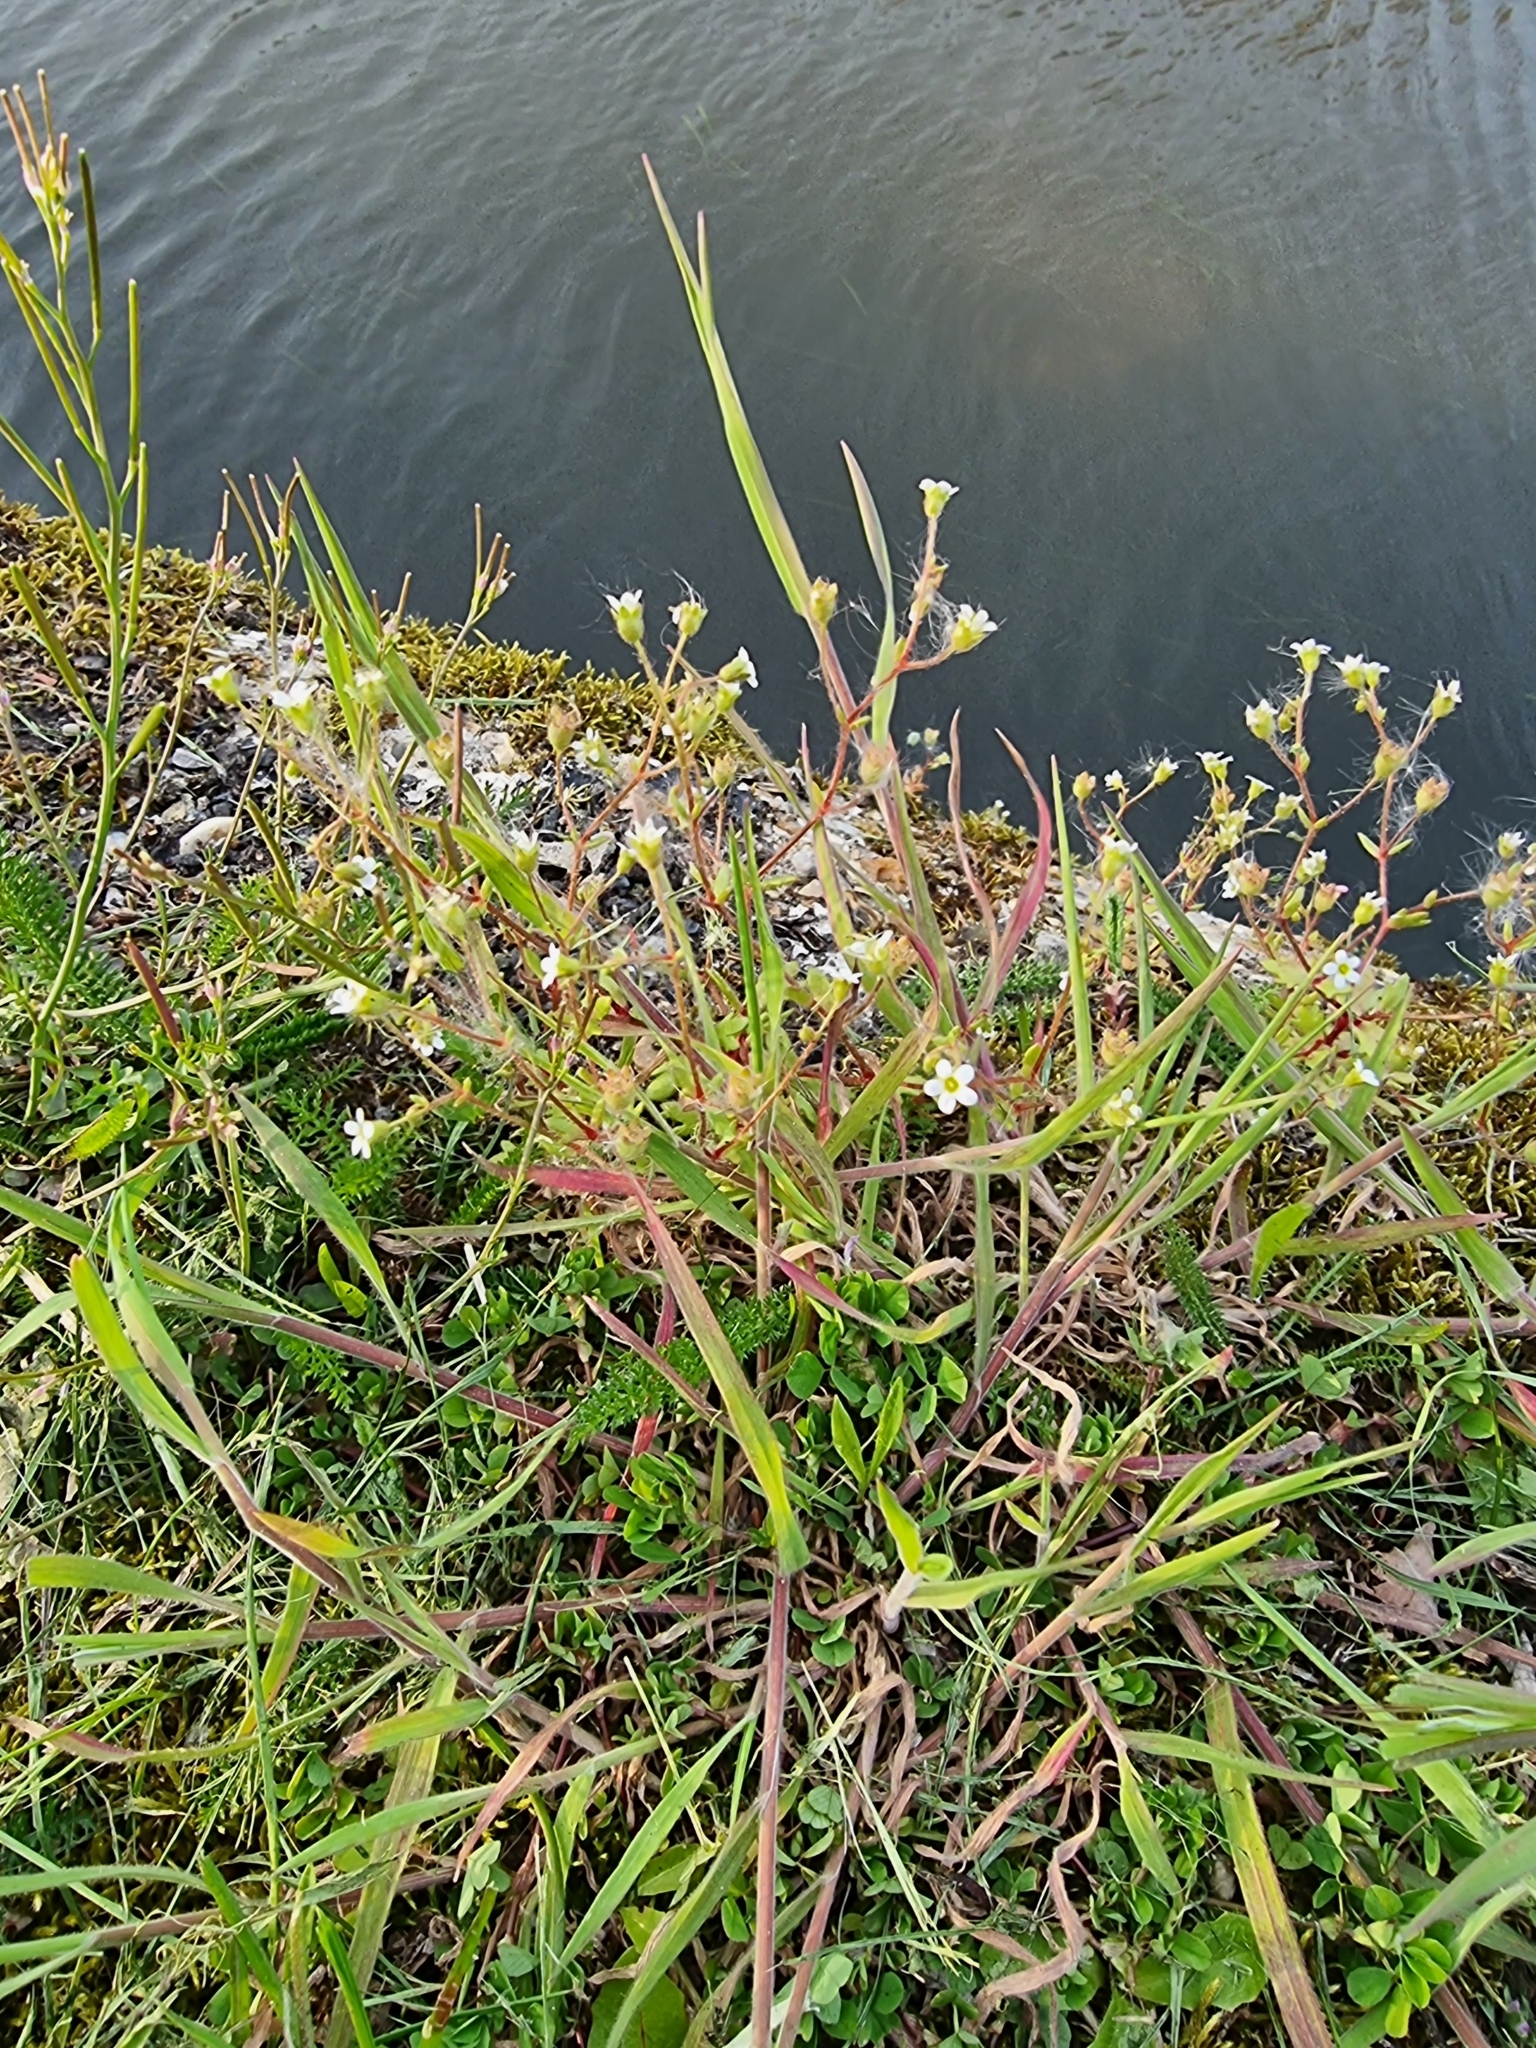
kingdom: Plantae
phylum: Tracheophyta
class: Magnoliopsida
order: Saxifragales
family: Saxifragaceae
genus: Saxifraga
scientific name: Saxifraga tridactylites
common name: Rue-leaved saxifrage
